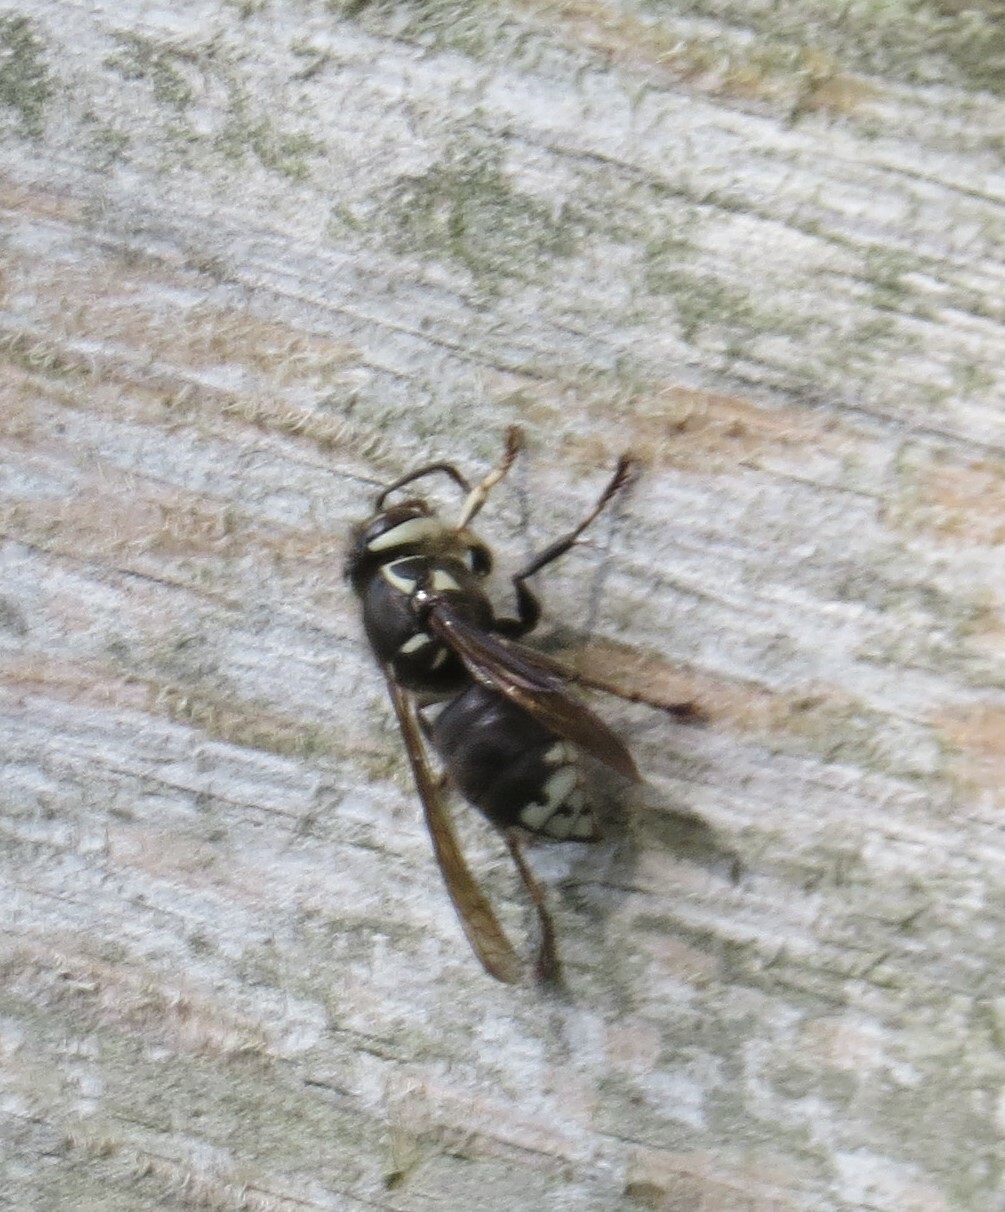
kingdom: Animalia
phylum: Arthropoda
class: Insecta
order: Hymenoptera
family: Vespidae
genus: Dolichovespula
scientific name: Dolichovespula maculata
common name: Bald-faced hornet
